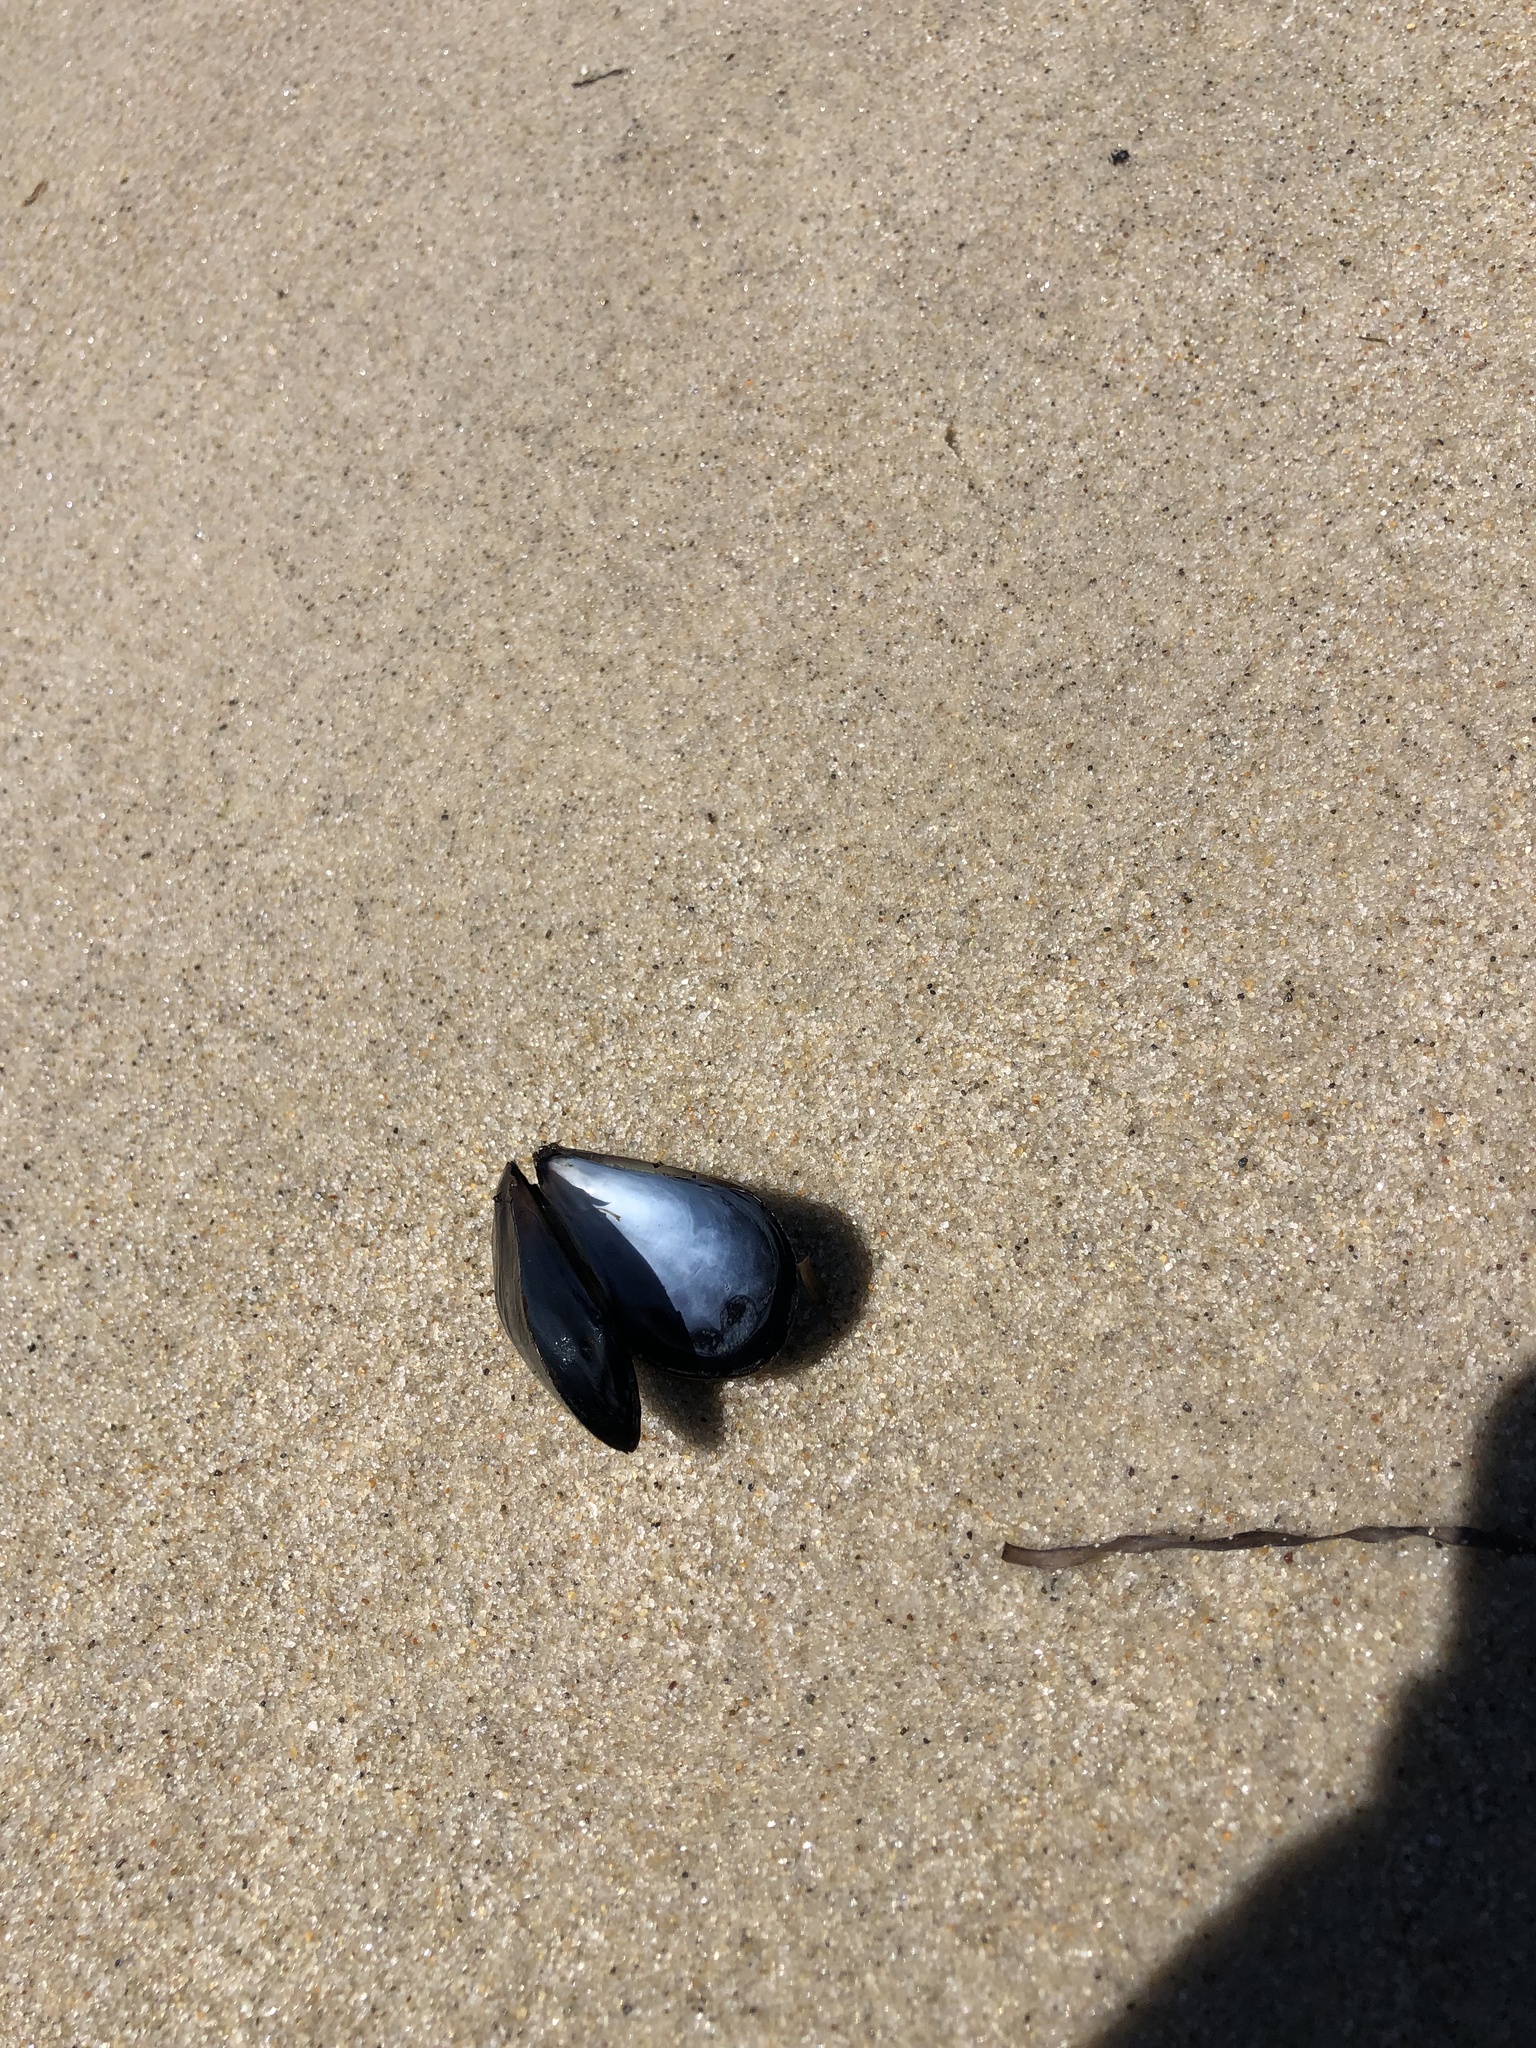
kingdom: Animalia
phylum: Mollusca
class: Bivalvia
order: Mytilida
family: Mytilidae
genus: Mytilus
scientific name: Mytilus edulis
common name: Blue mussel
